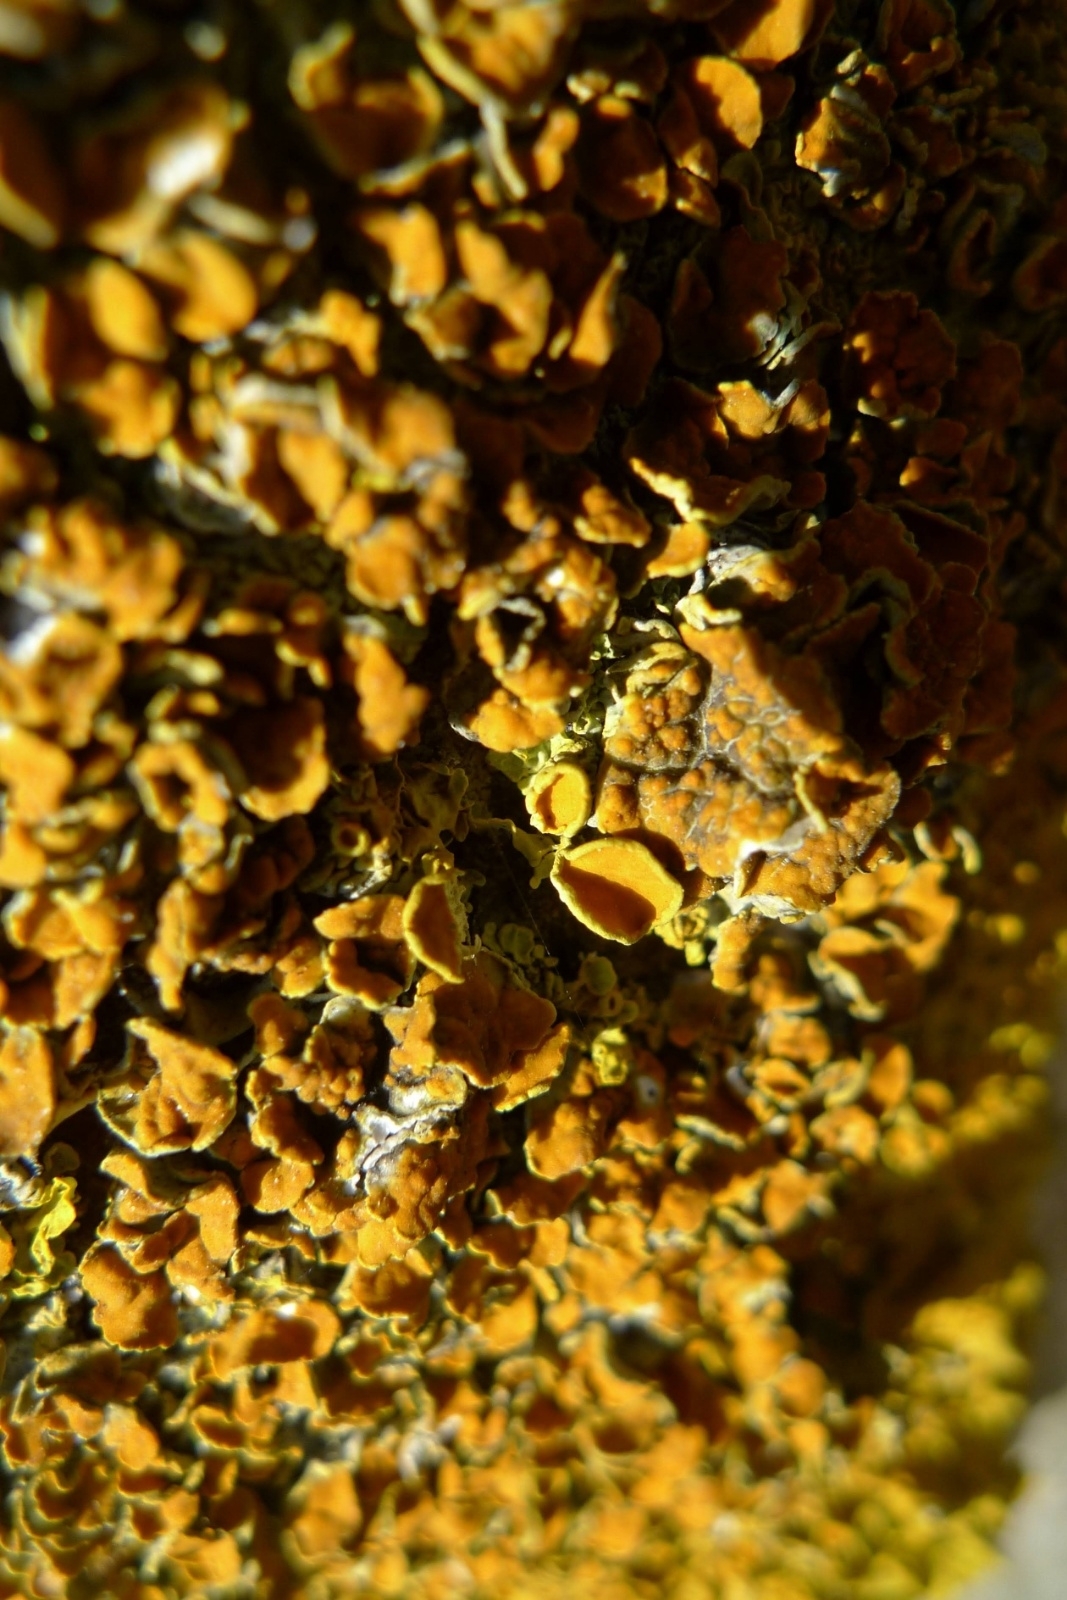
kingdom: Fungi
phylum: Ascomycota
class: Lecanoromycetes
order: Teloschistales
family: Teloschistaceae
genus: Xanthoria
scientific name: Xanthoria parietina
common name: Common orange lichen
